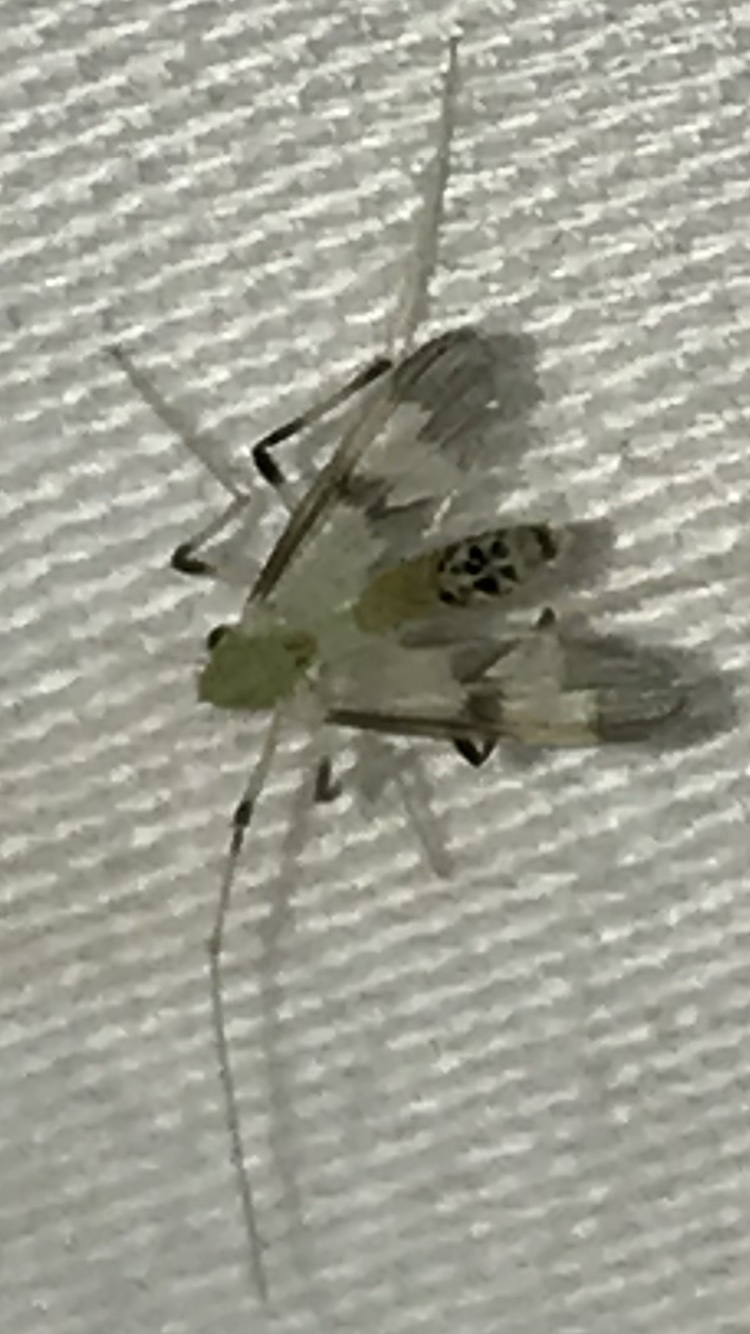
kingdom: Animalia
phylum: Arthropoda
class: Insecta
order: Diptera
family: Chironomidae
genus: Stenochironomus
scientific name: Stenochironomus hilaris
